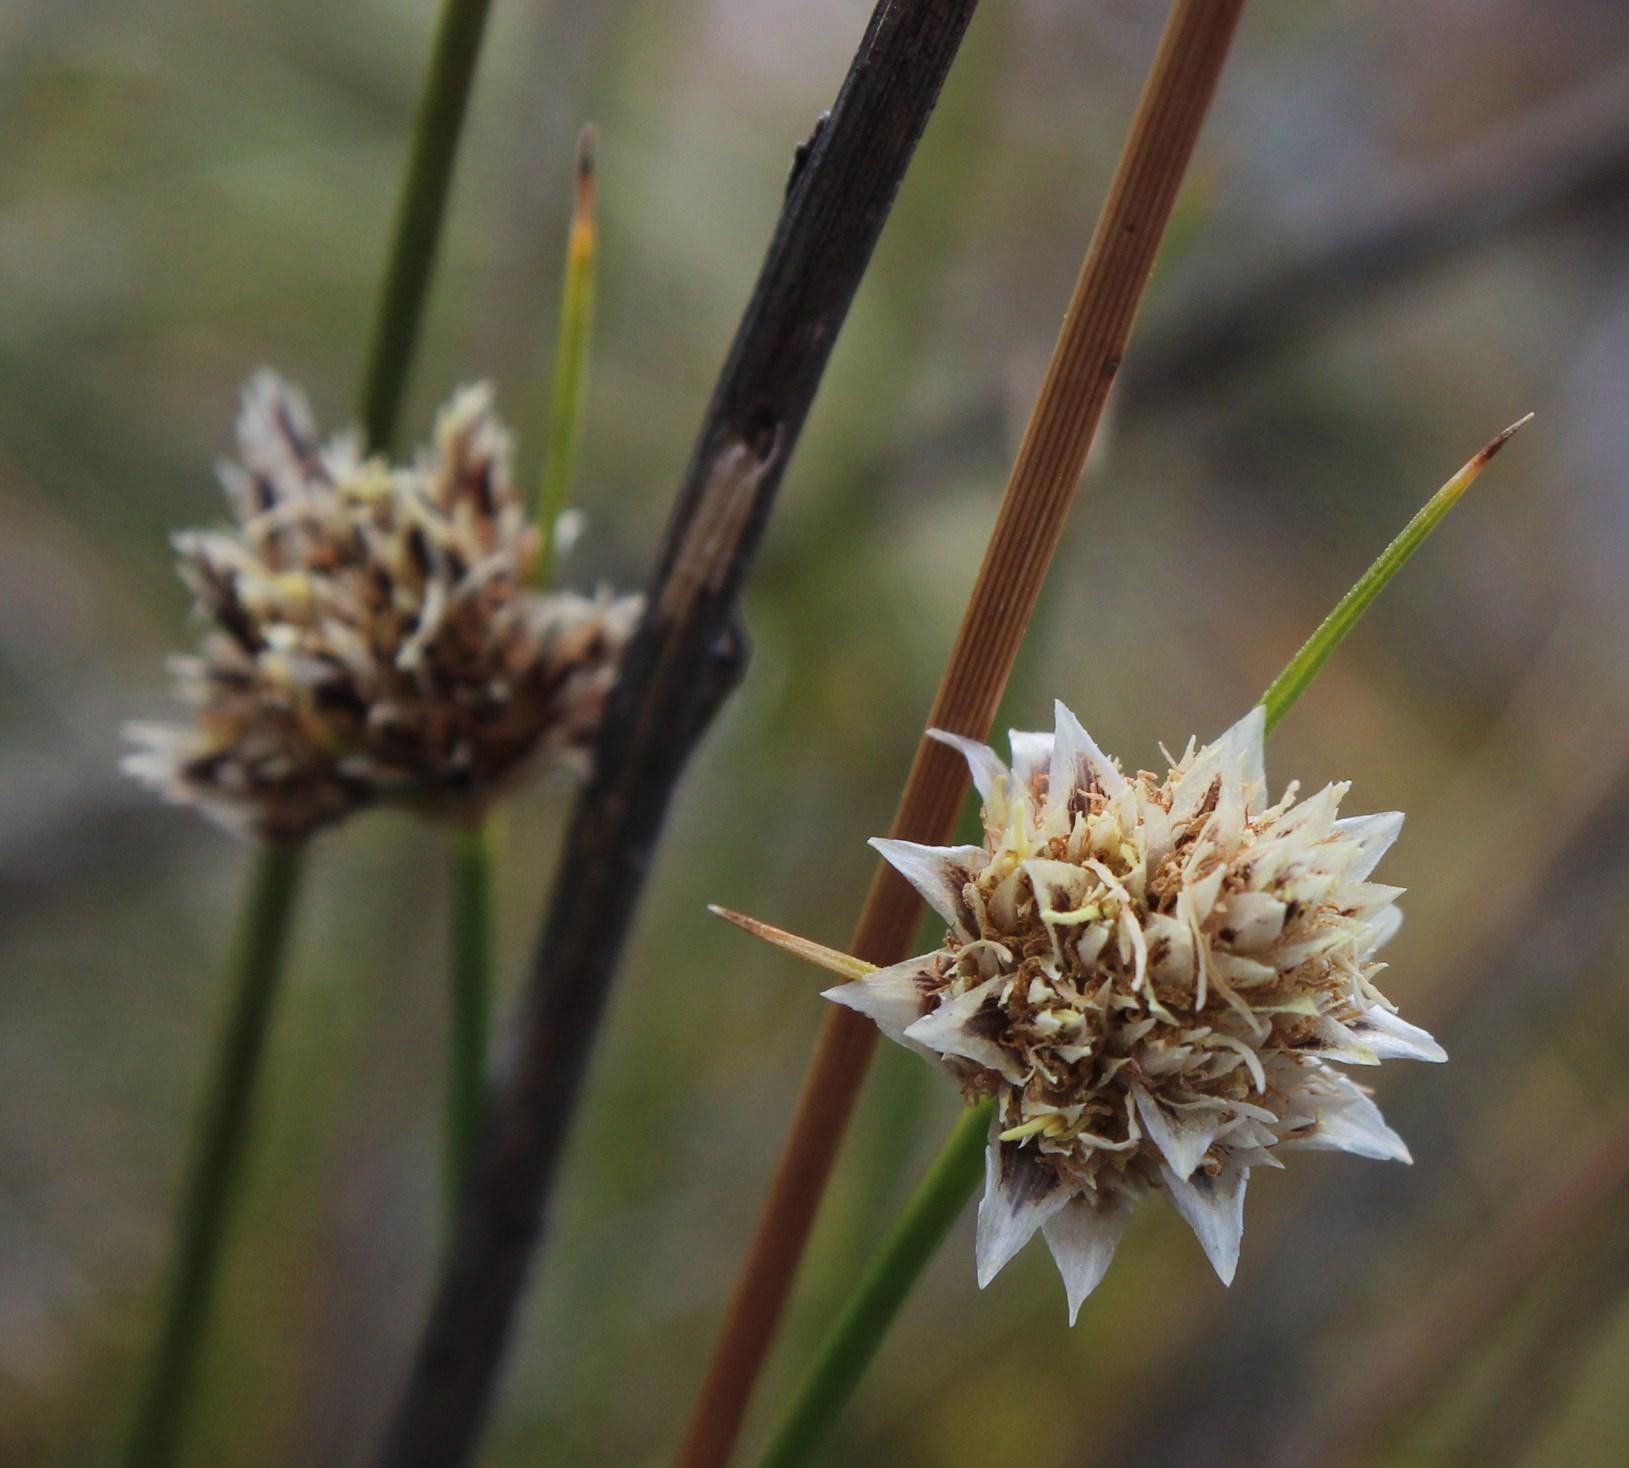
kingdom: Plantae
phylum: Tracheophyta
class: Liliopsida
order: Poales
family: Cyperaceae
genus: Ficinia
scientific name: Ficinia nigrescens
